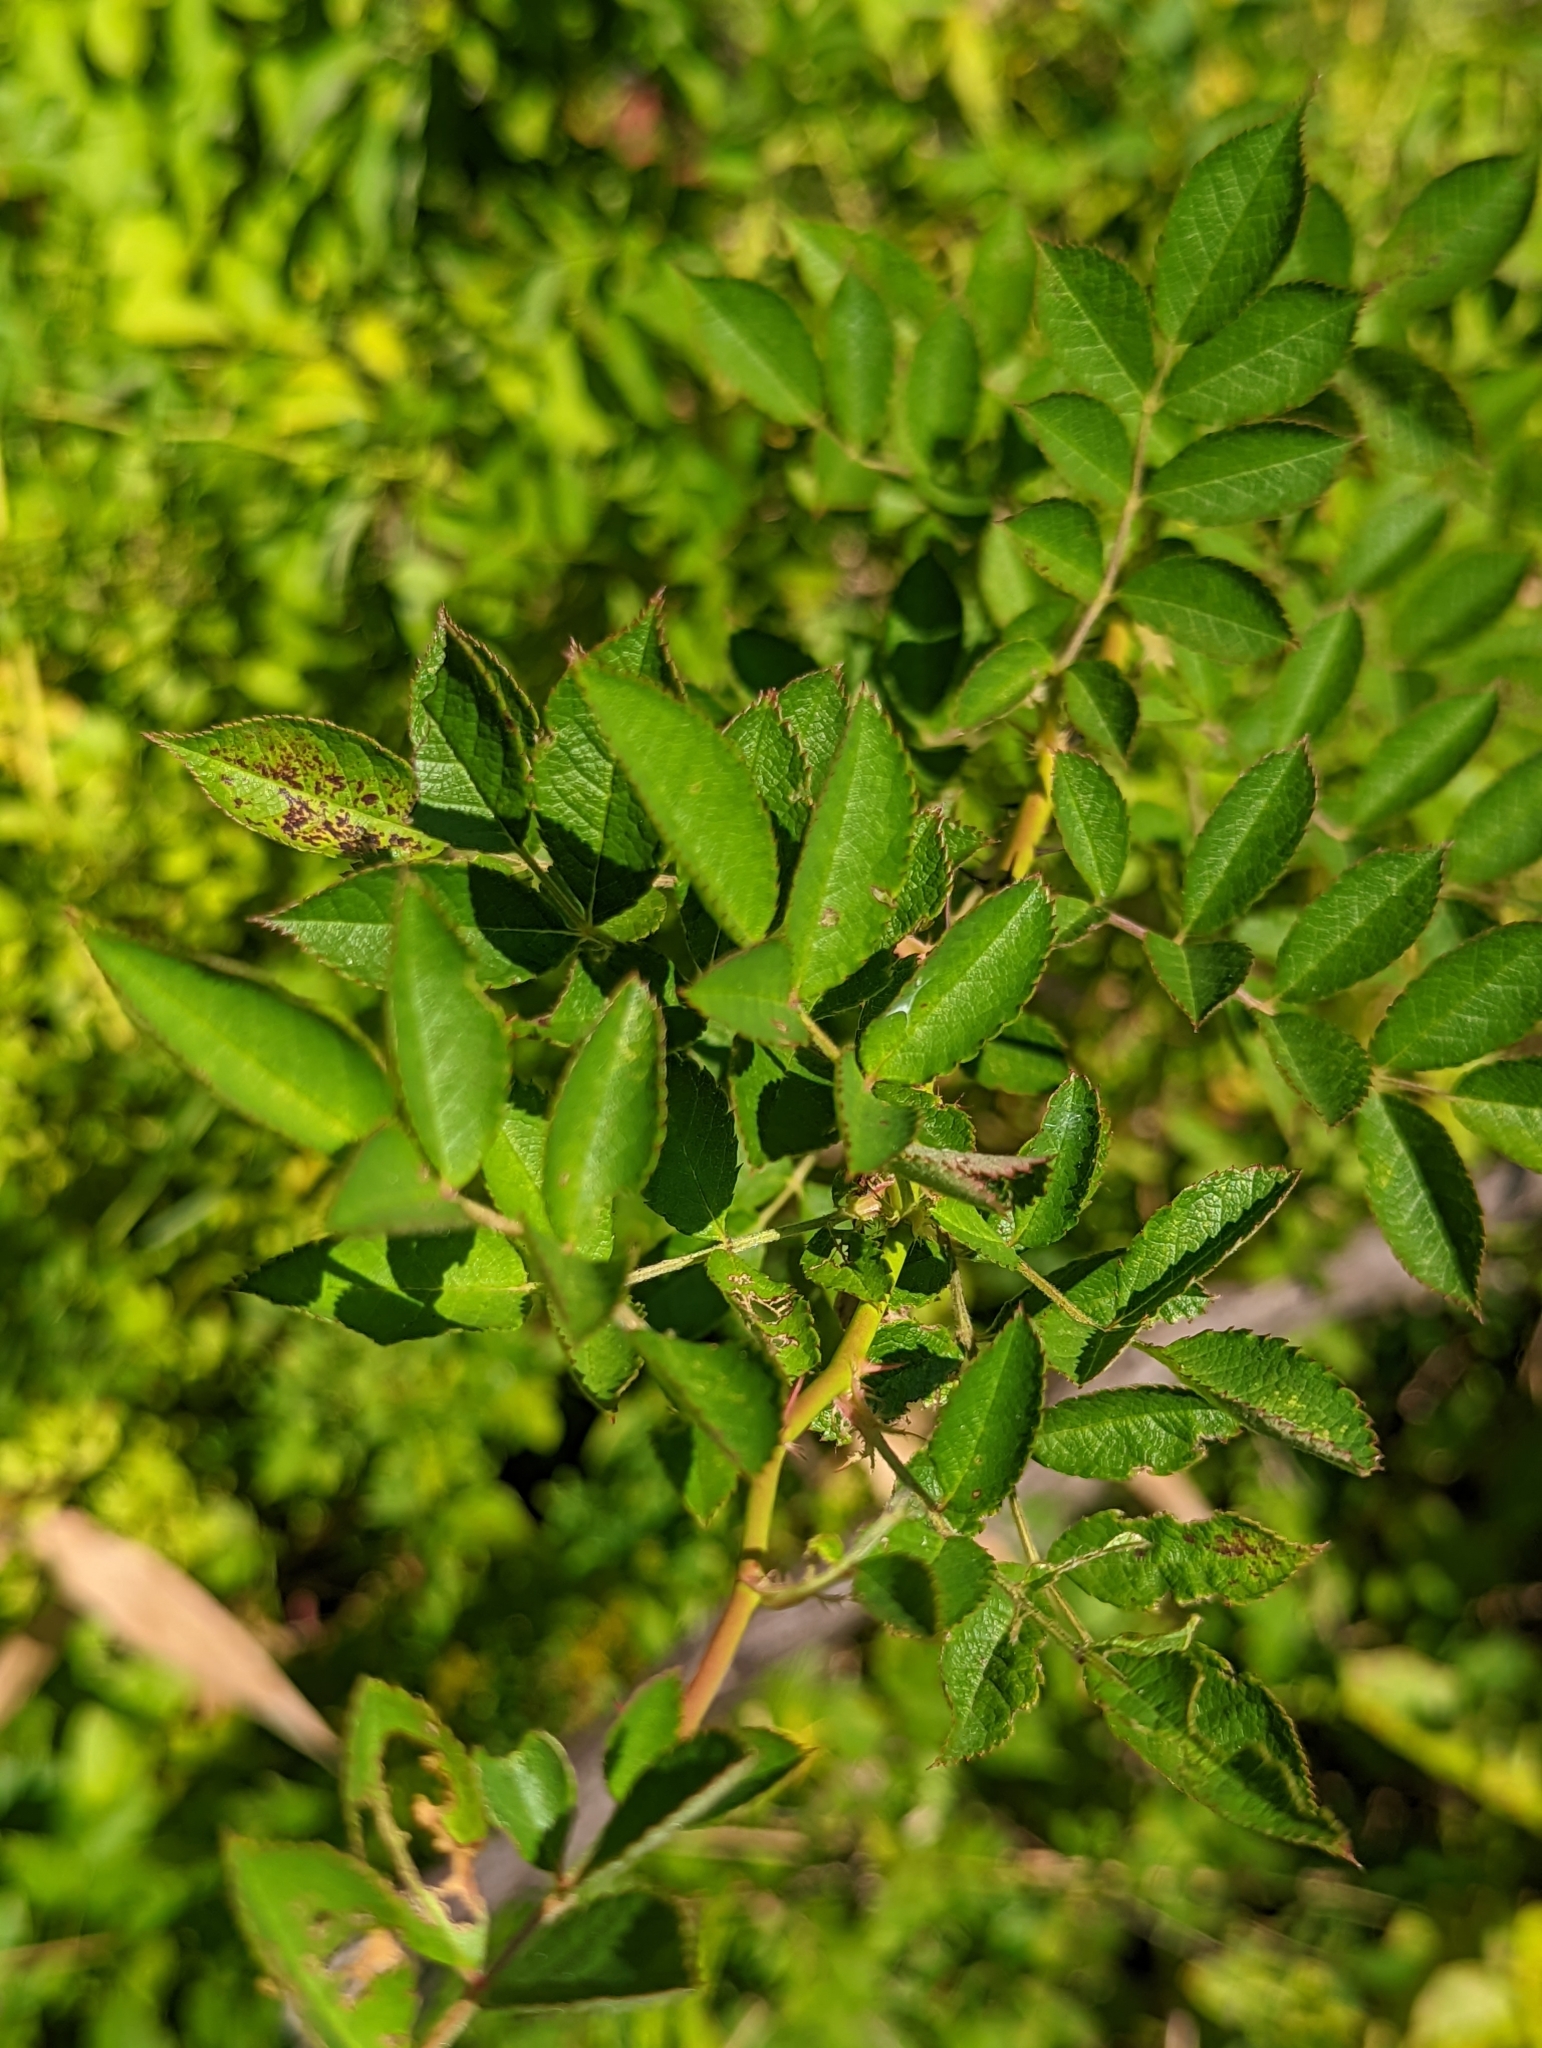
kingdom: Plantae
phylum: Tracheophyta
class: Magnoliopsida
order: Rosales
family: Rosaceae
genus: Rosa
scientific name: Rosa multiflora
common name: Multiflora rose
